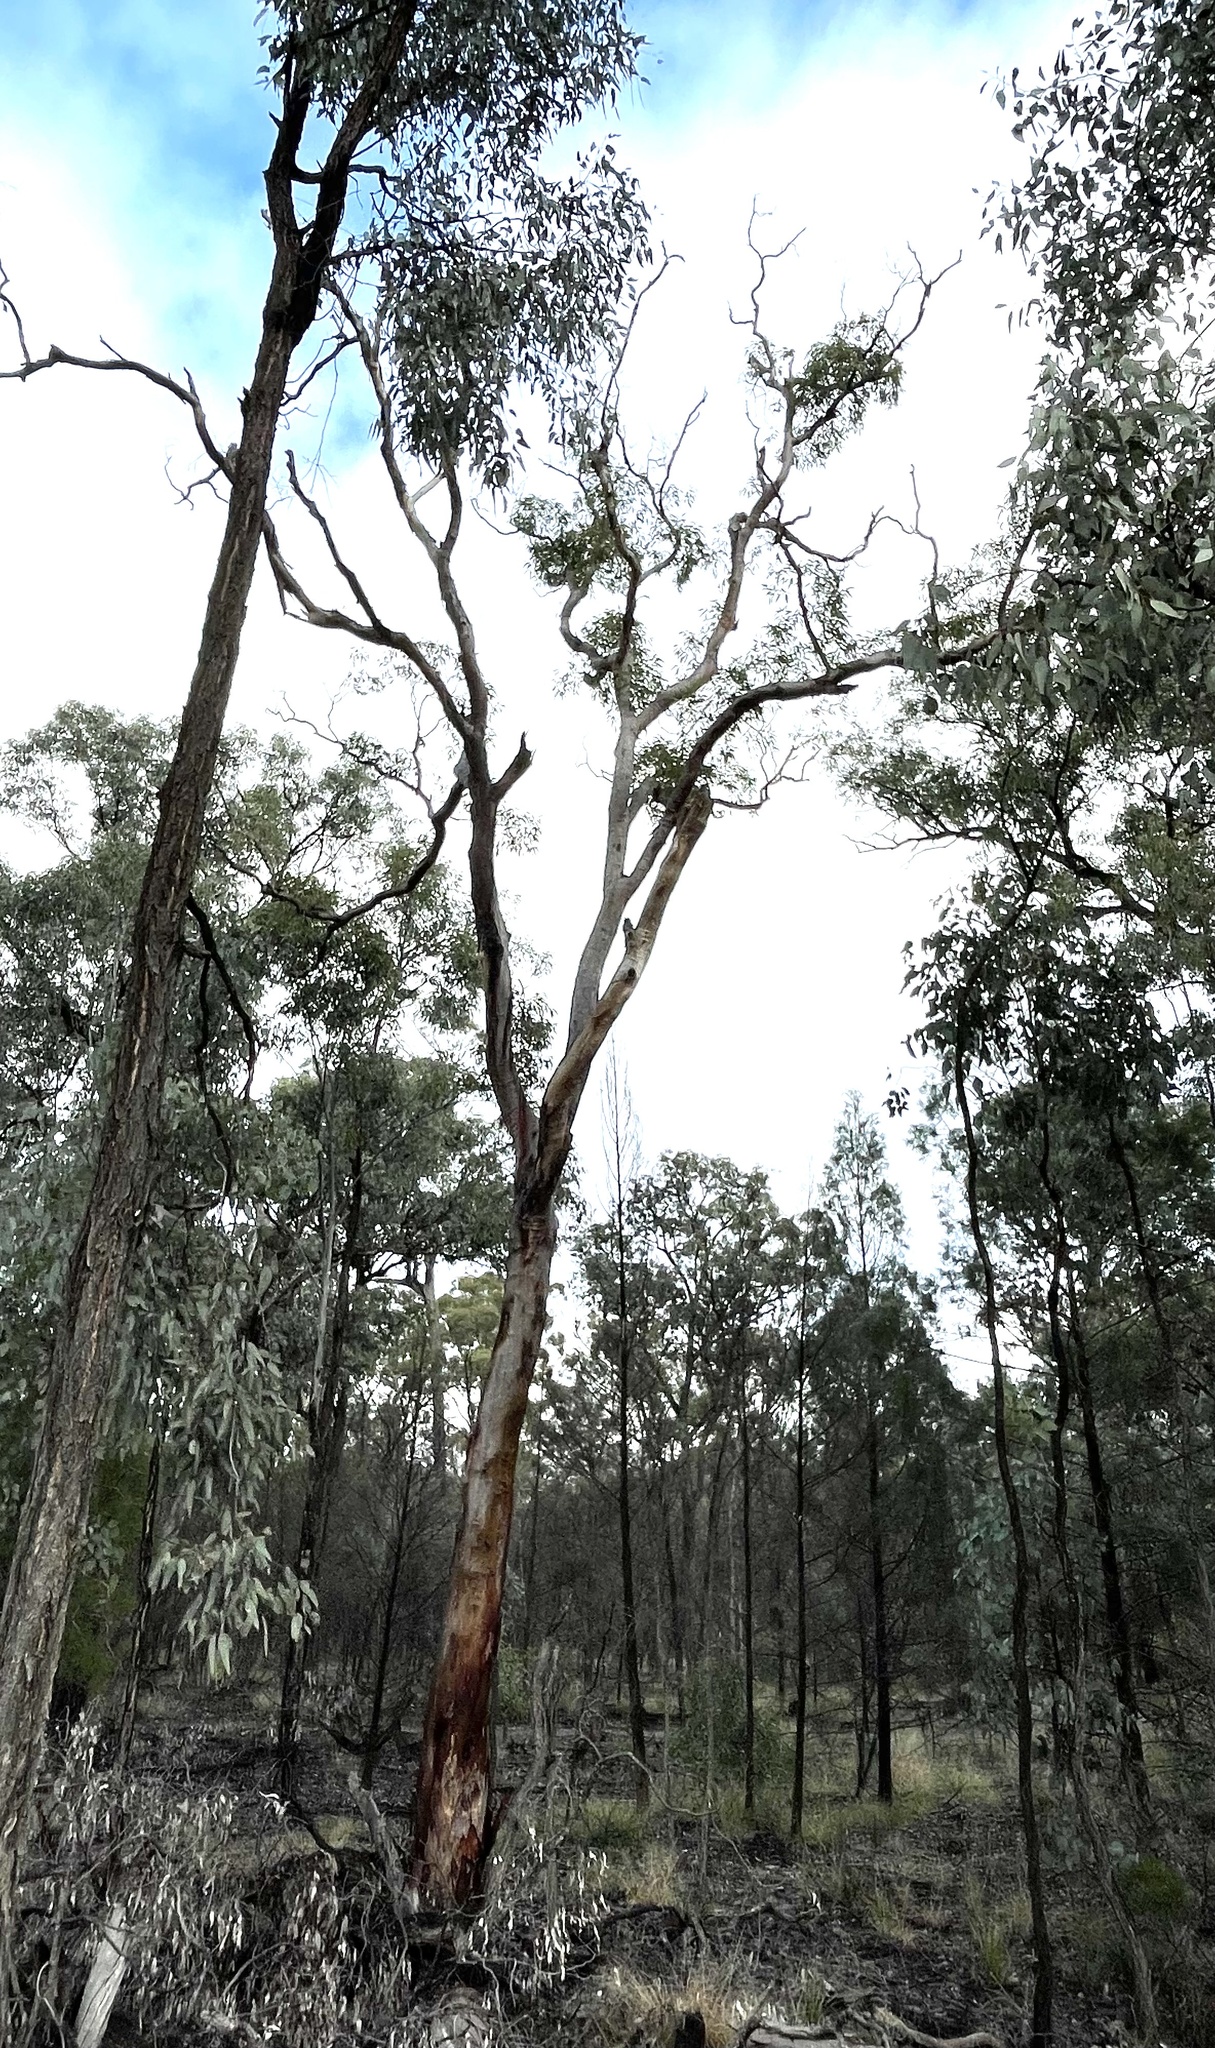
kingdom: Plantae
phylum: Tracheophyta
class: Magnoliopsida
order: Myrtales
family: Myrtaceae
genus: Eucalyptus
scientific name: Eucalyptus chloroclada
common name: Baradine red gum
